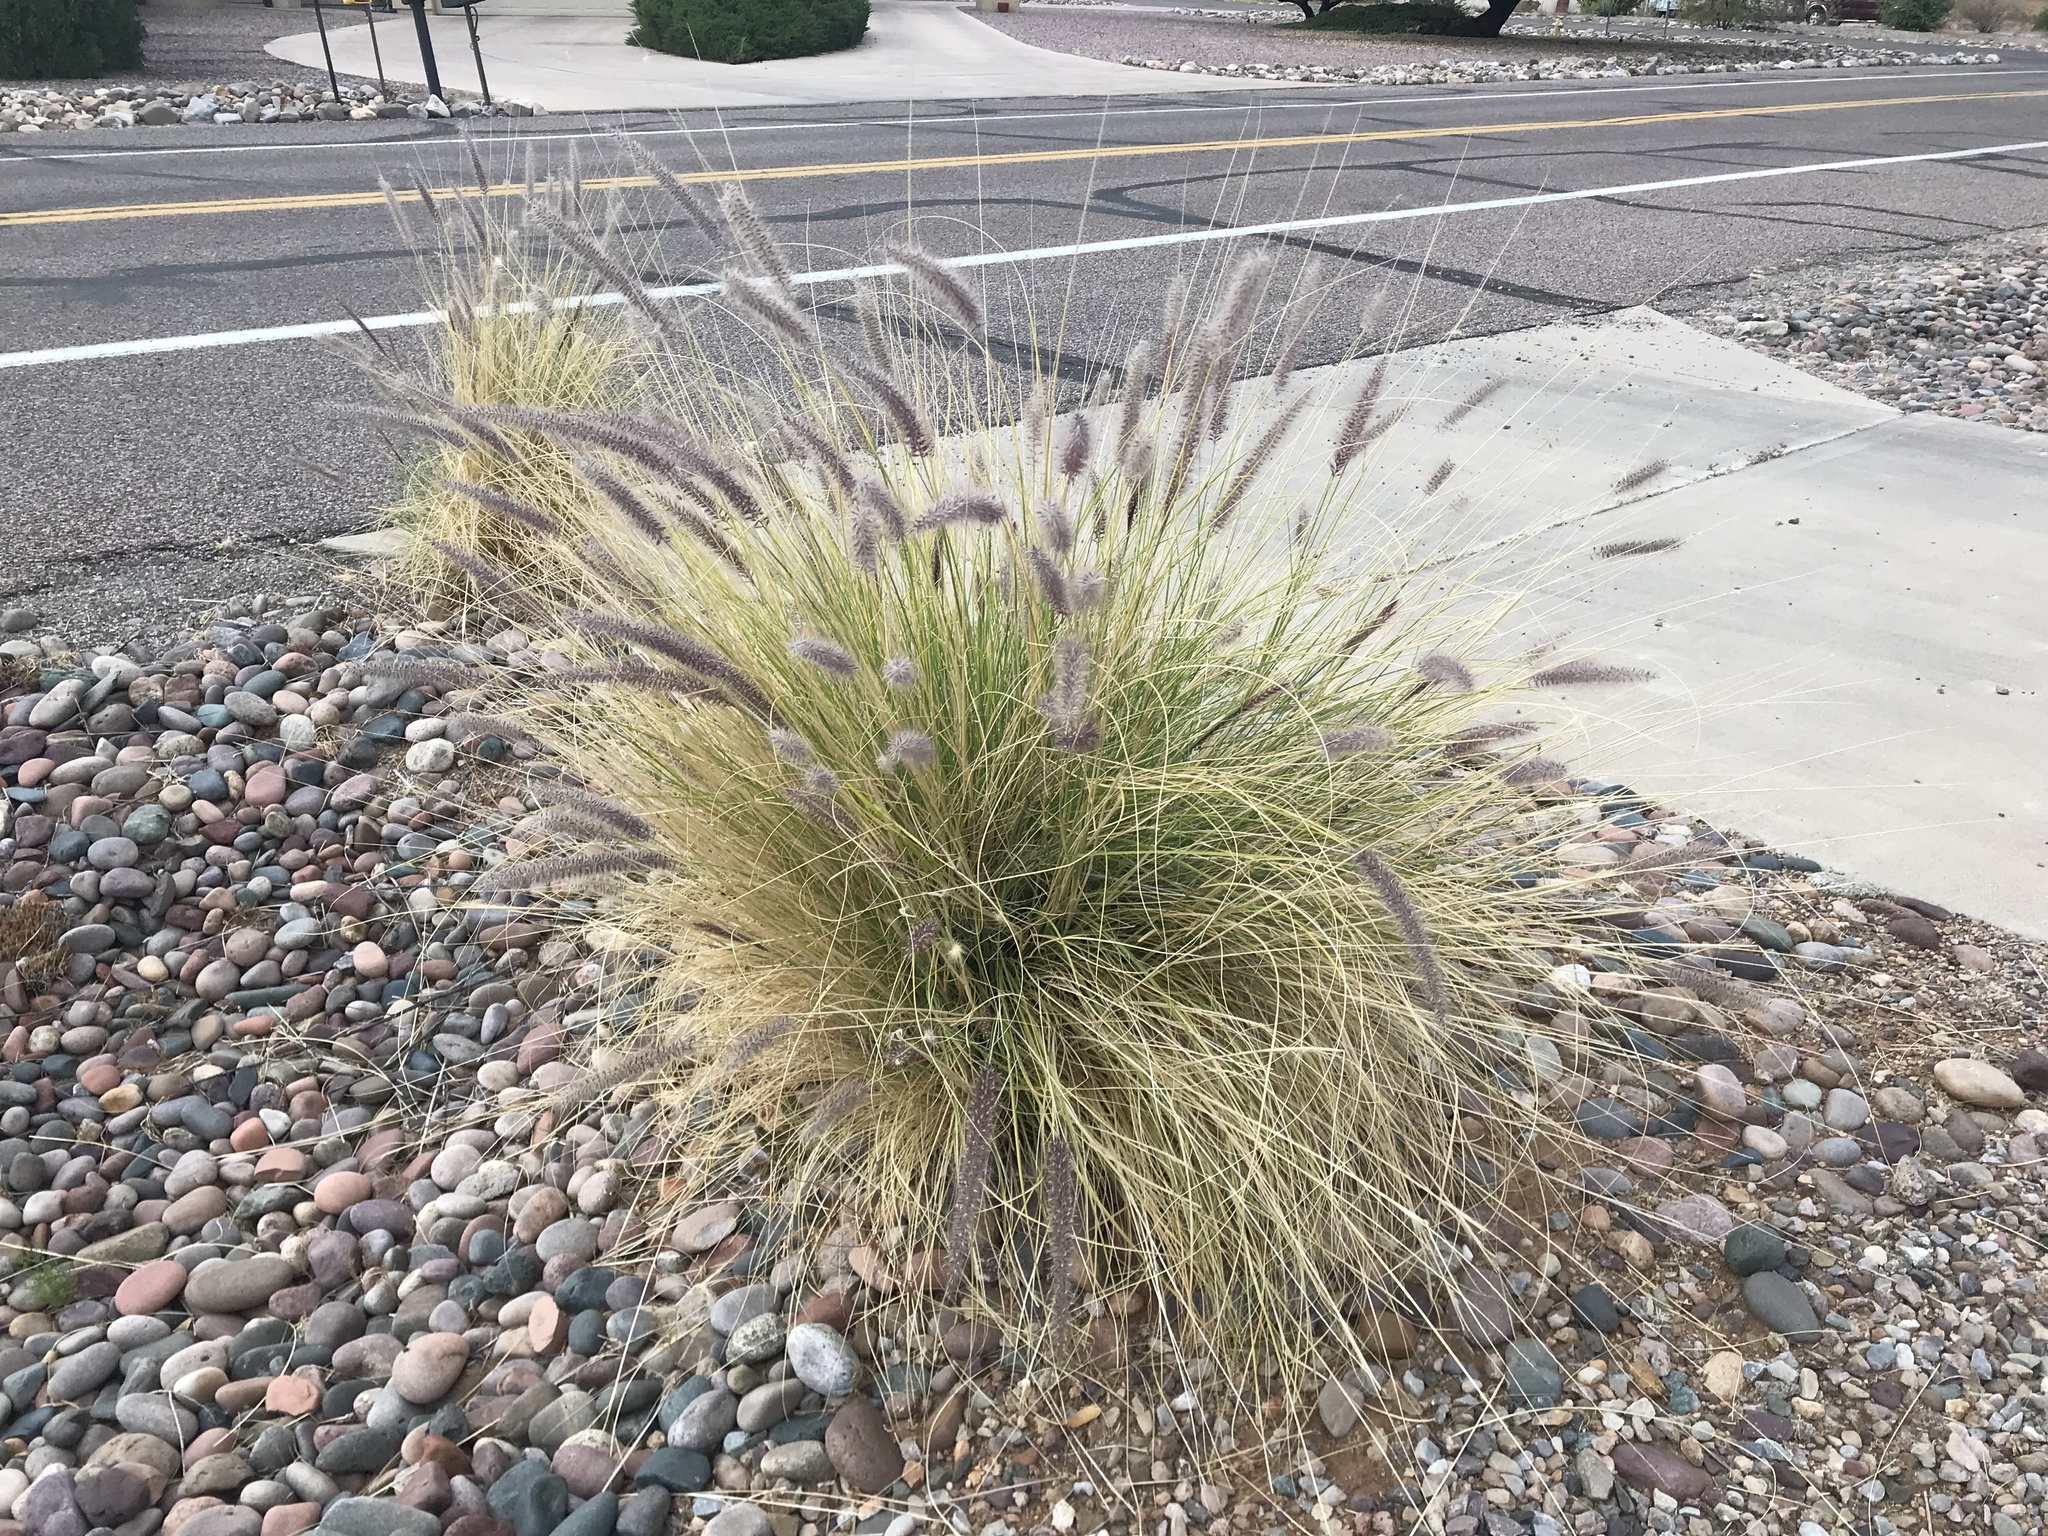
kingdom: Plantae
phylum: Tracheophyta
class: Liliopsida
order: Poales
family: Poaceae
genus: Cenchrus
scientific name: Cenchrus setaceus
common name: Crimson fountaingrass
